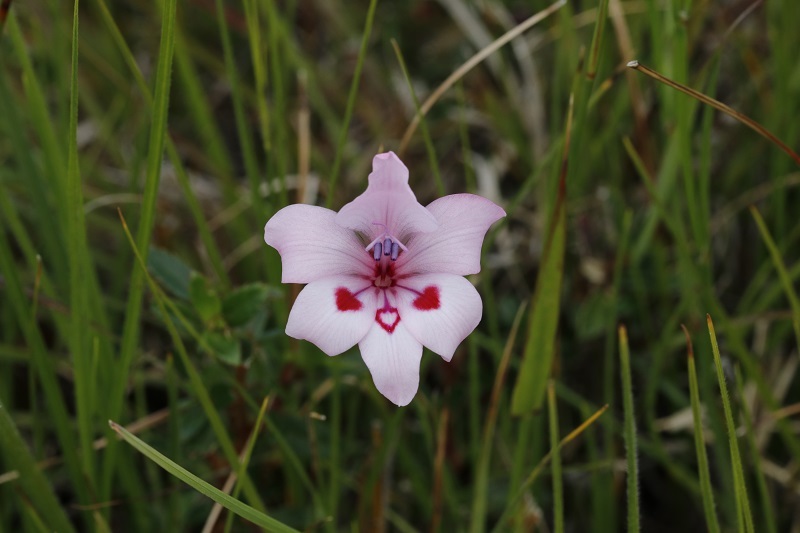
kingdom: Plantae
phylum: Tracheophyta
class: Liliopsida
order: Asparagales
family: Iridaceae
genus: Gladiolus
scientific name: Gladiolus carneus
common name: Painted-lady
